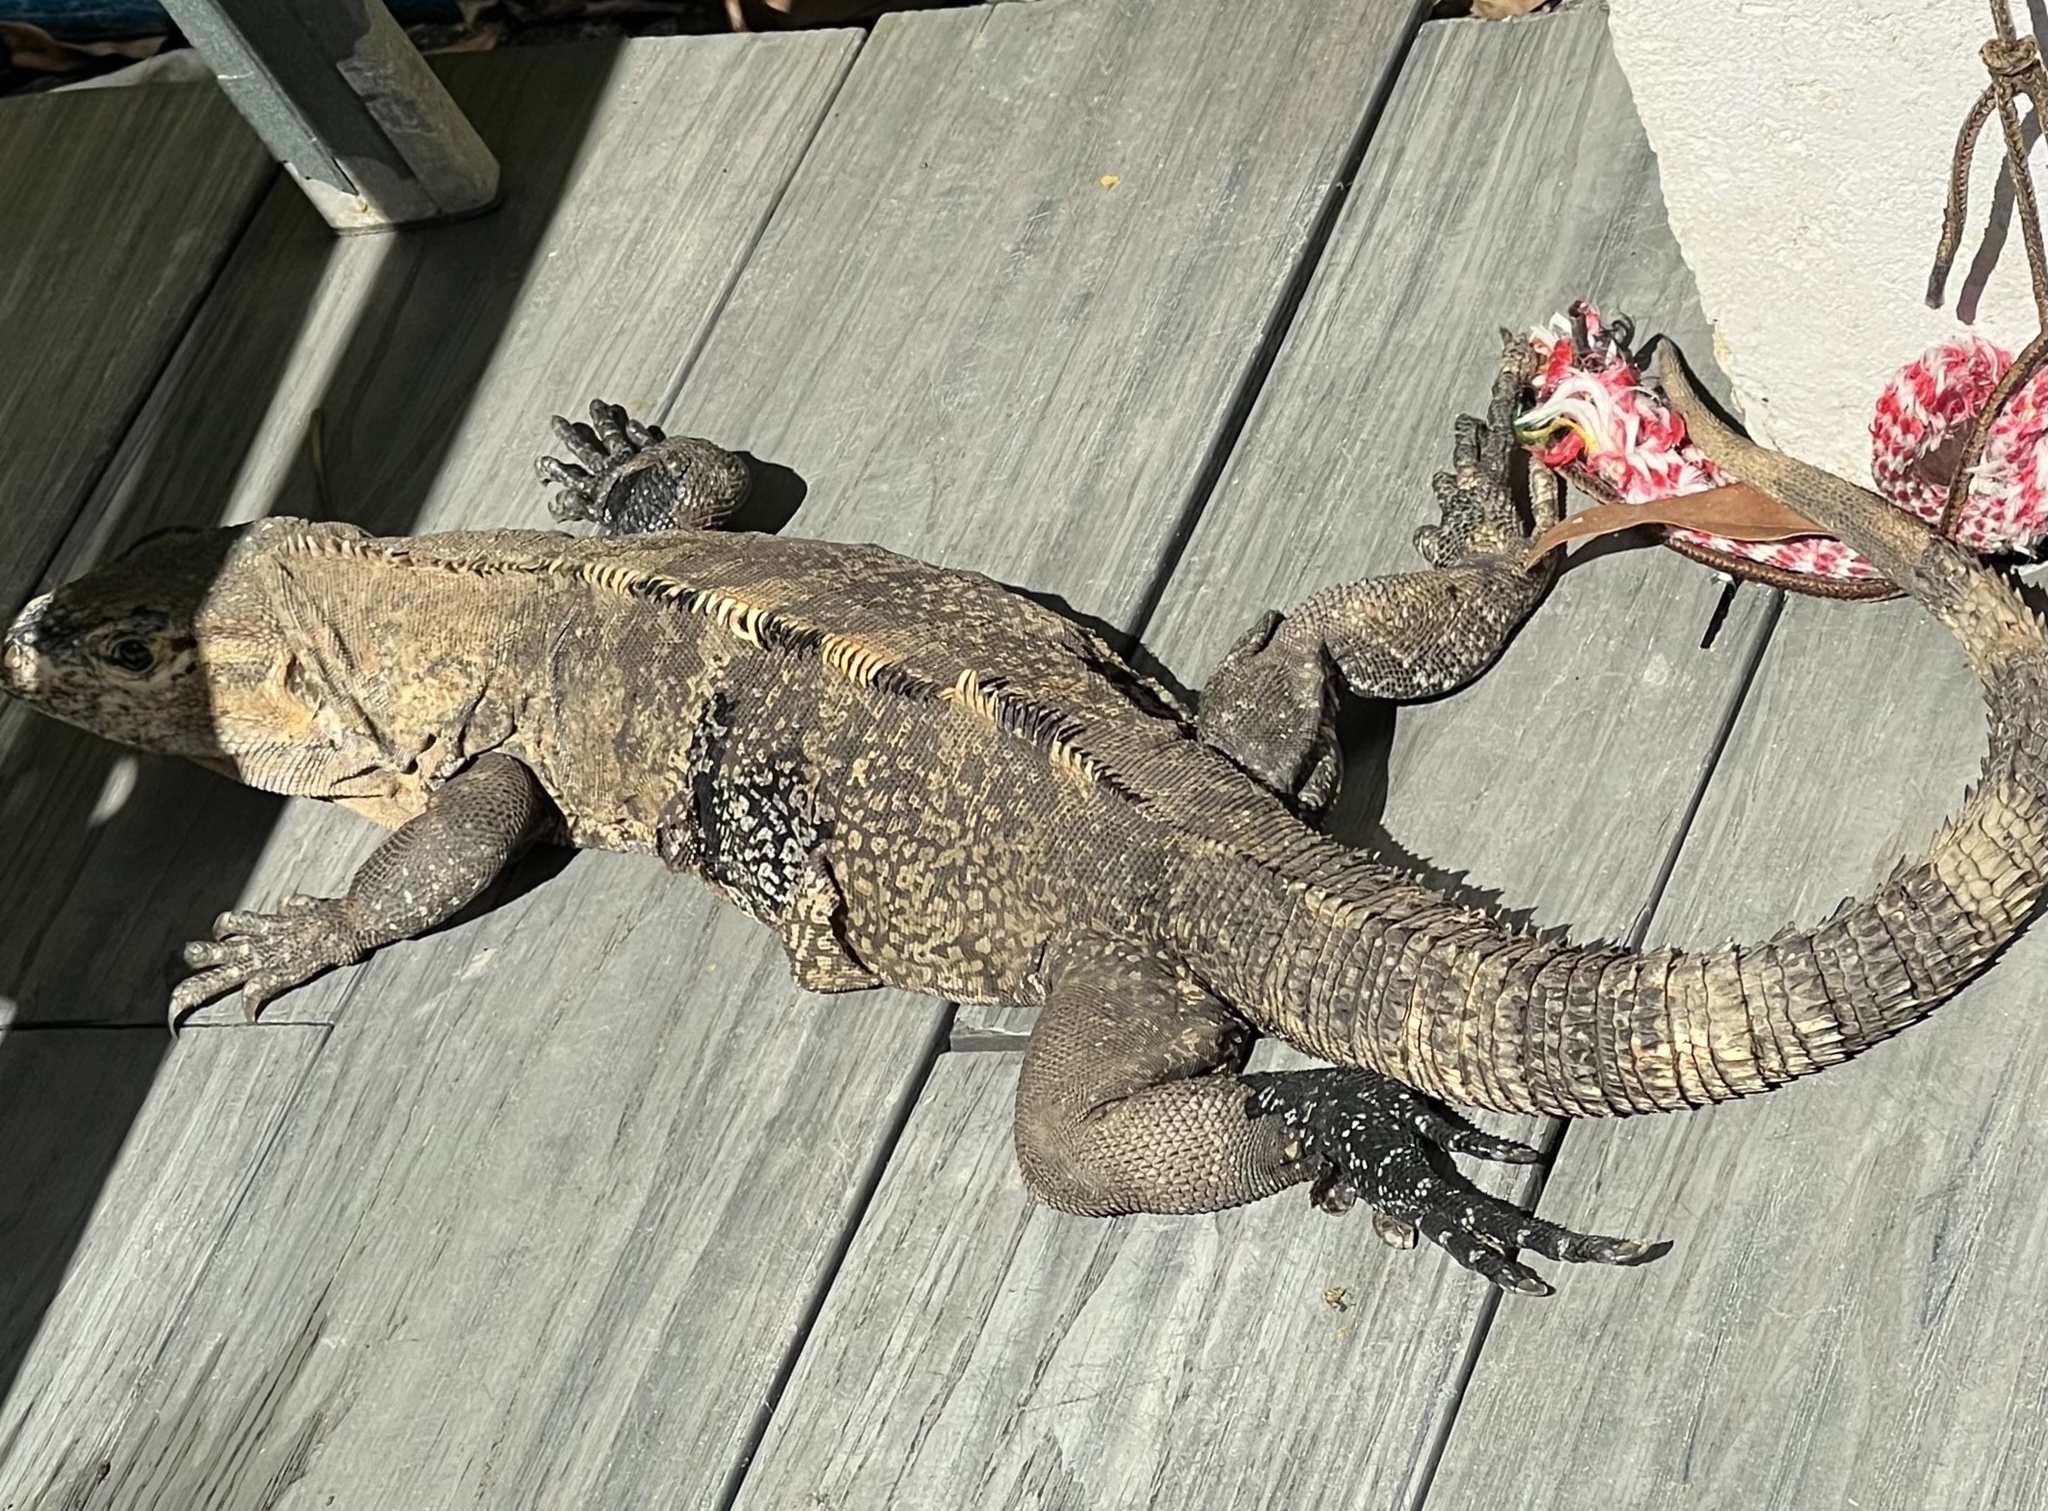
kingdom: Animalia
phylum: Chordata
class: Squamata
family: Iguanidae
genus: Ctenosaura
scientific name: Ctenosaura similis
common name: Black spiny-tailed iguana
